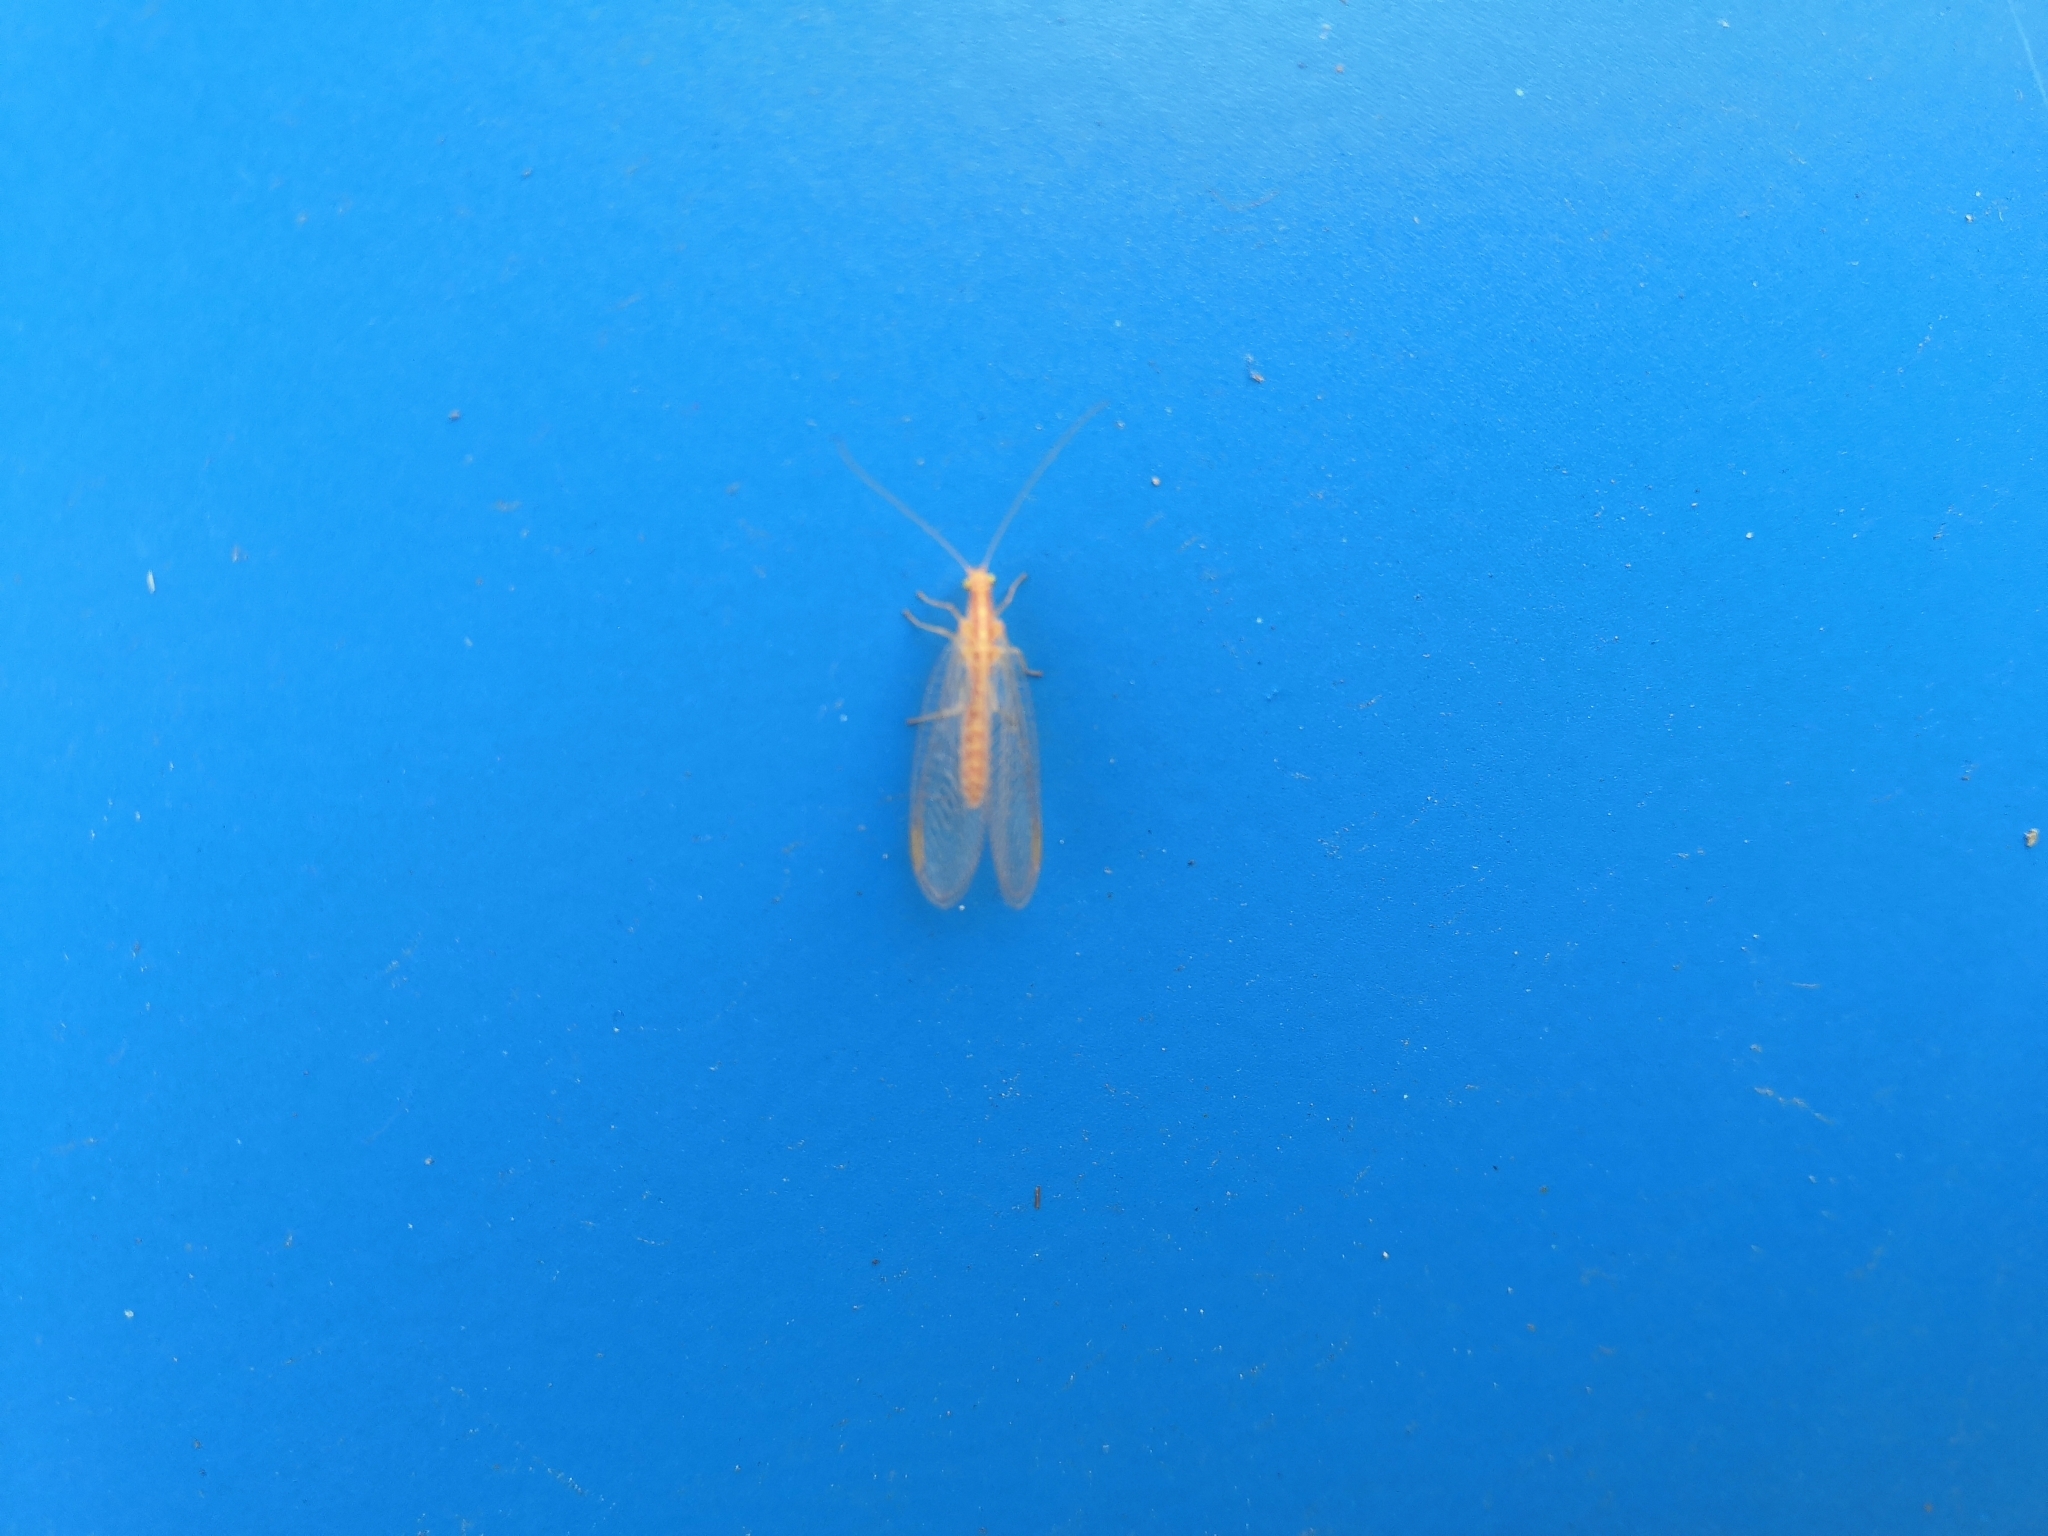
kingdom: Animalia
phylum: Arthropoda
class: Insecta
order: Neuroptera
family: Chrysopidae
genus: Chrysoperla
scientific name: Chrysoperla
